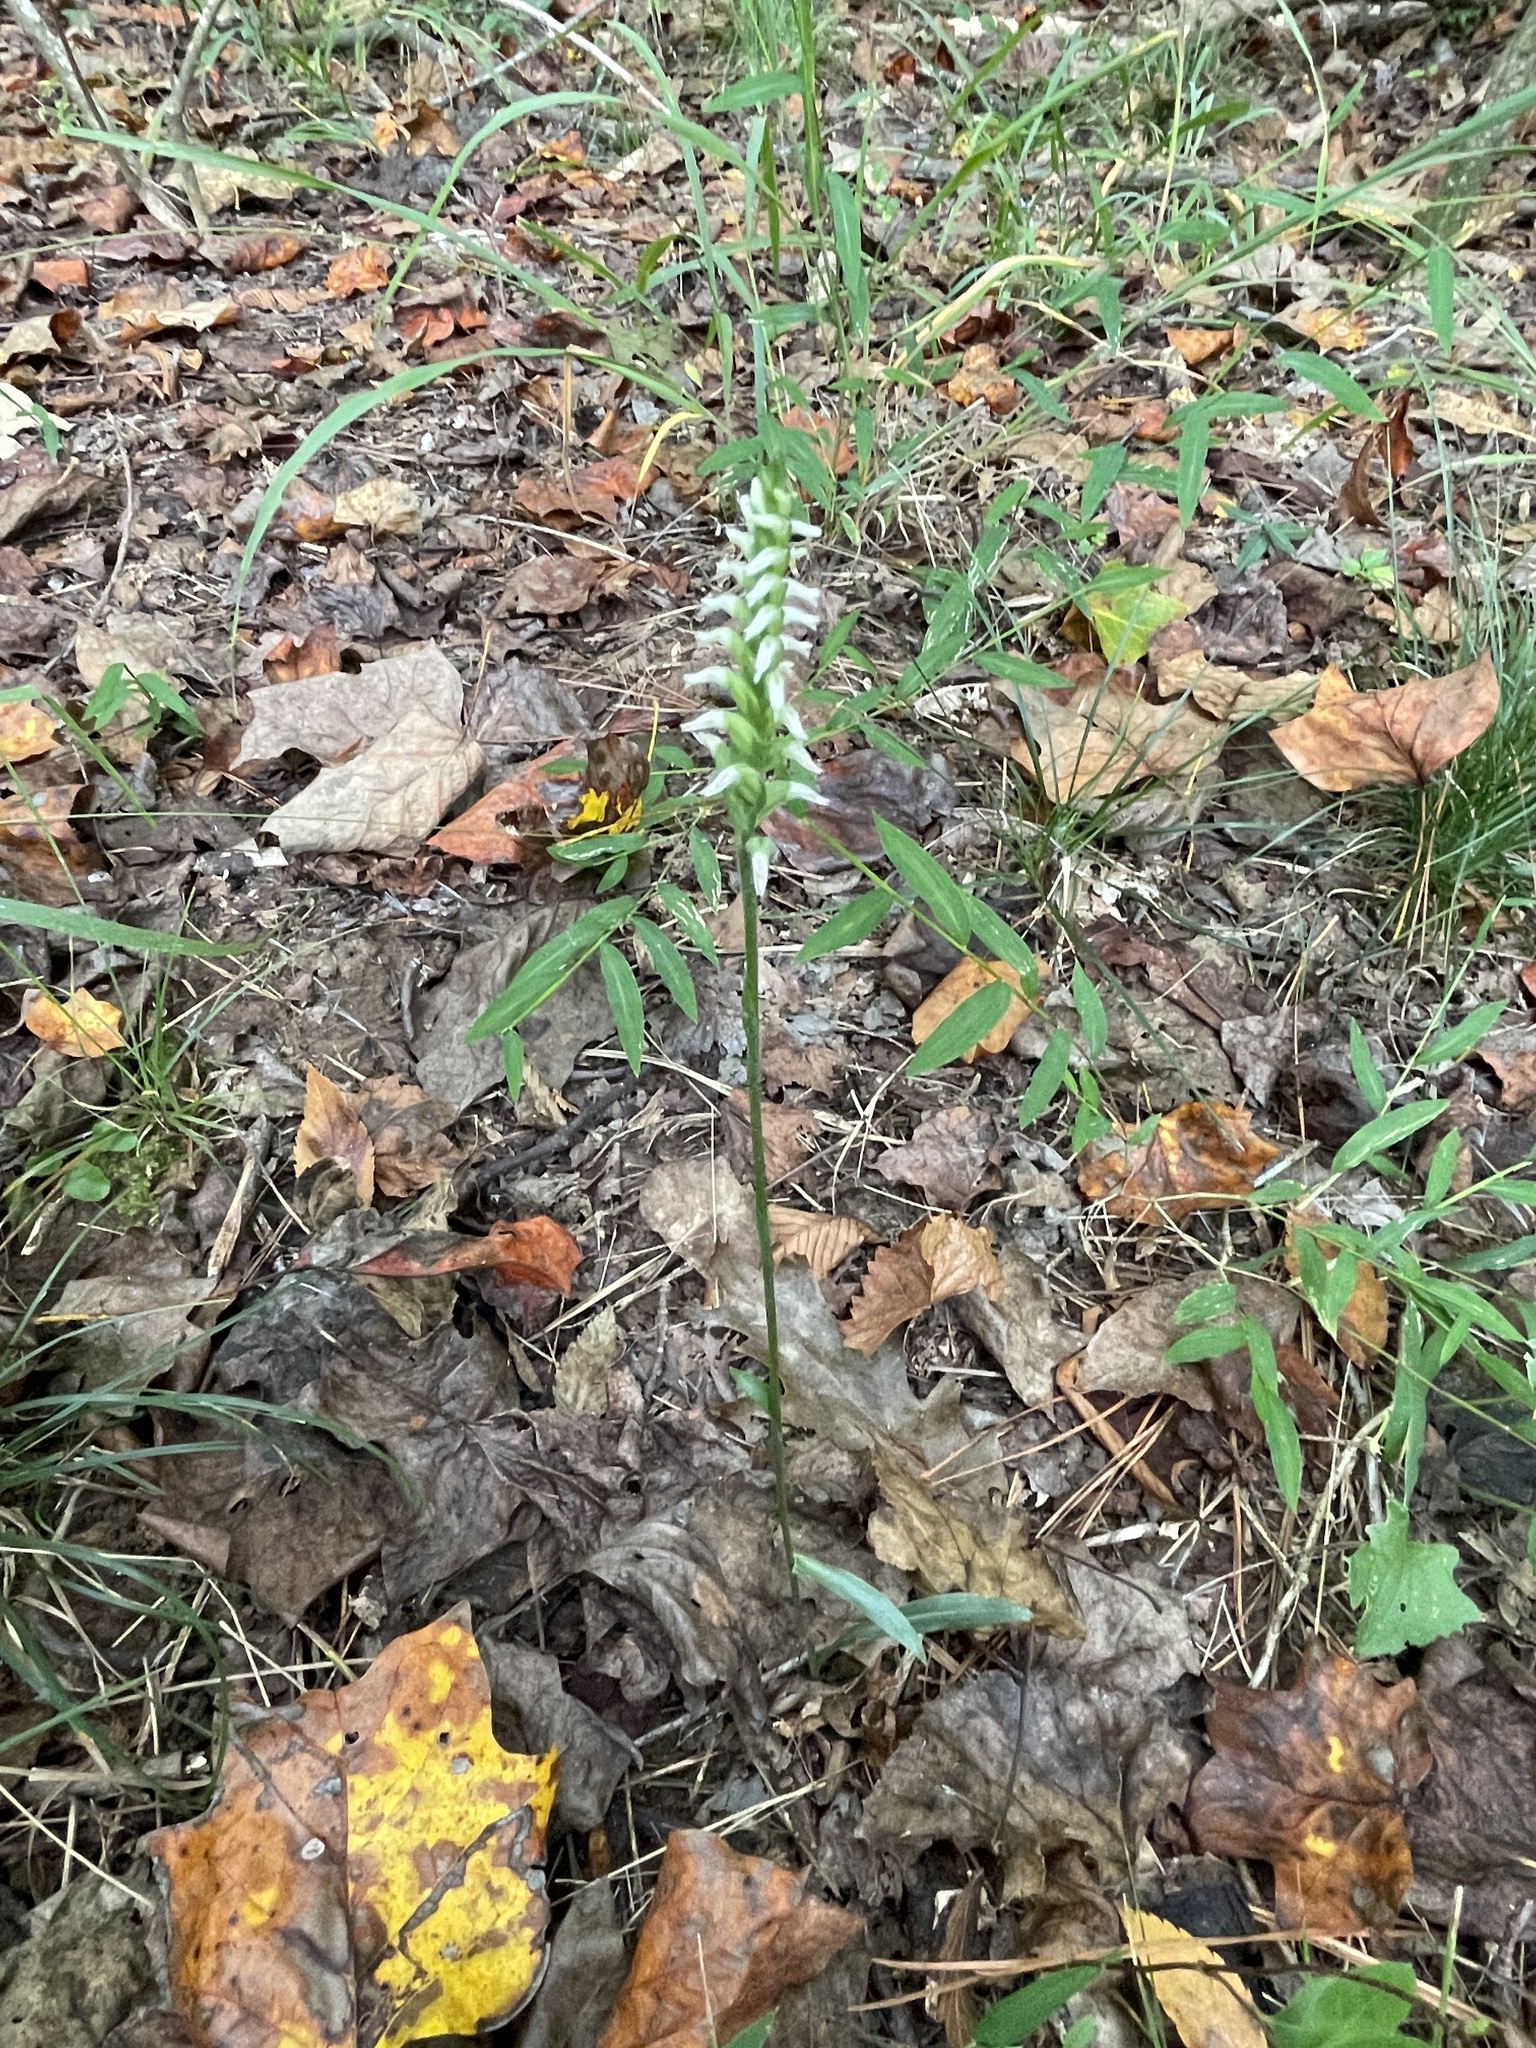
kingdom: Plantae
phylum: Tracheophyta
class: Liliopsida
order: Asparagales
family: Orchidaceae
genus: Spiranthes
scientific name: Spiranthes ovalis
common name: October ladies'-tresses
